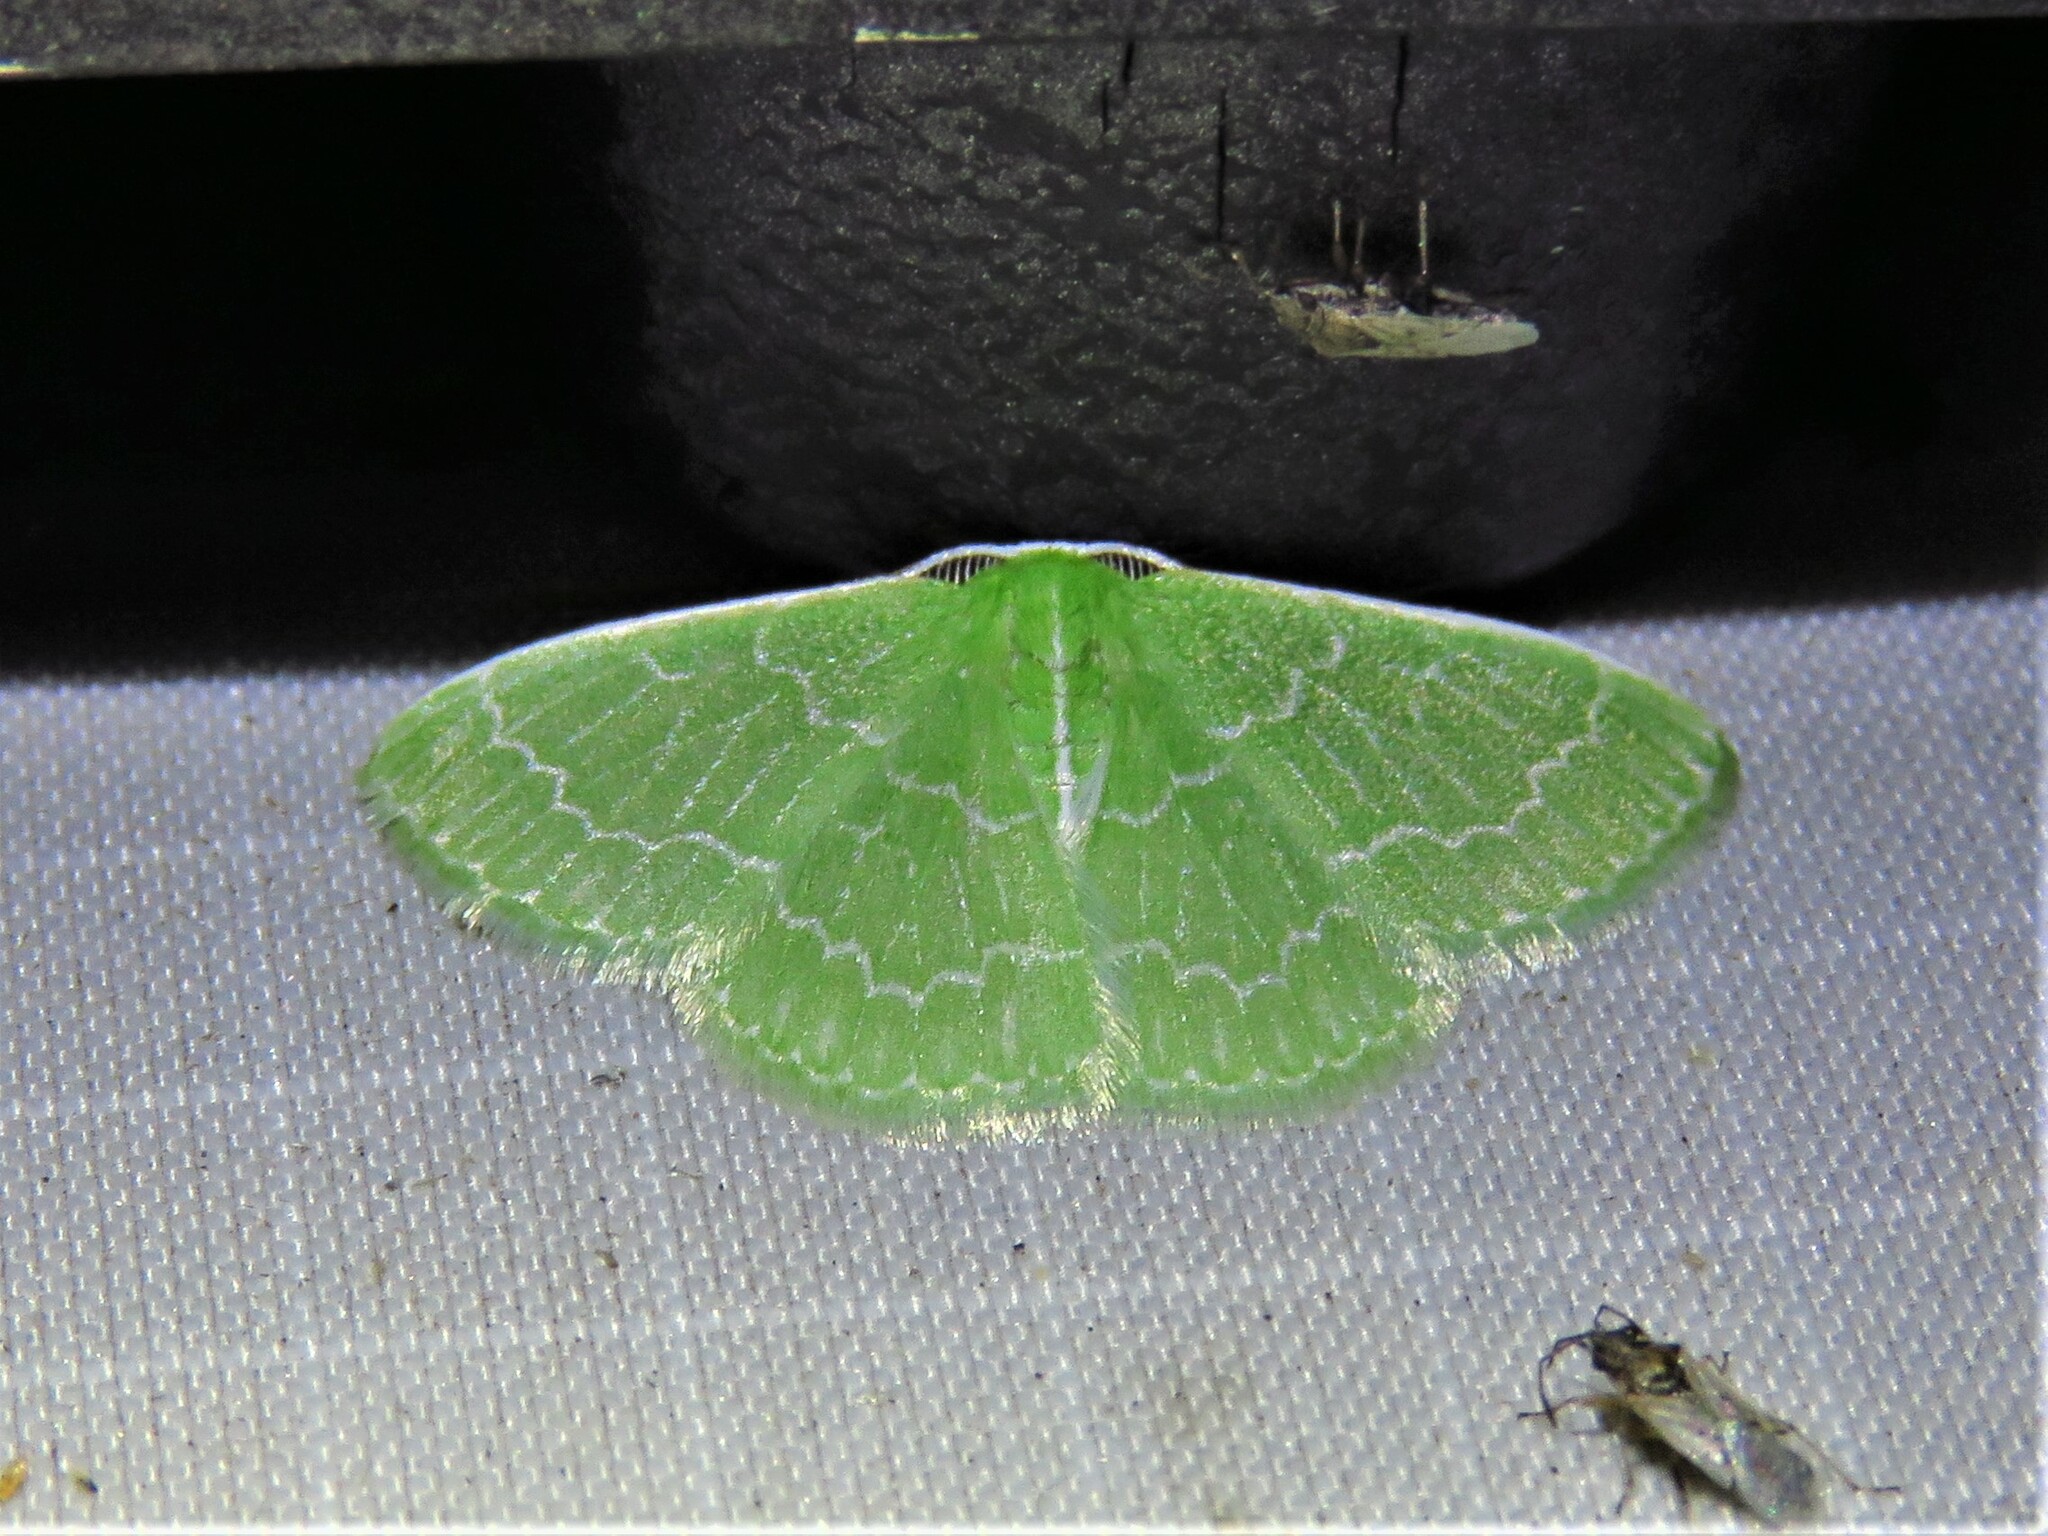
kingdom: Animalia
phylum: Arthropoda
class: Insecta
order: Lepidoptera
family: Geometridae
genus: Synchlora
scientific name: Synchlora frondaria
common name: Southern emerald
